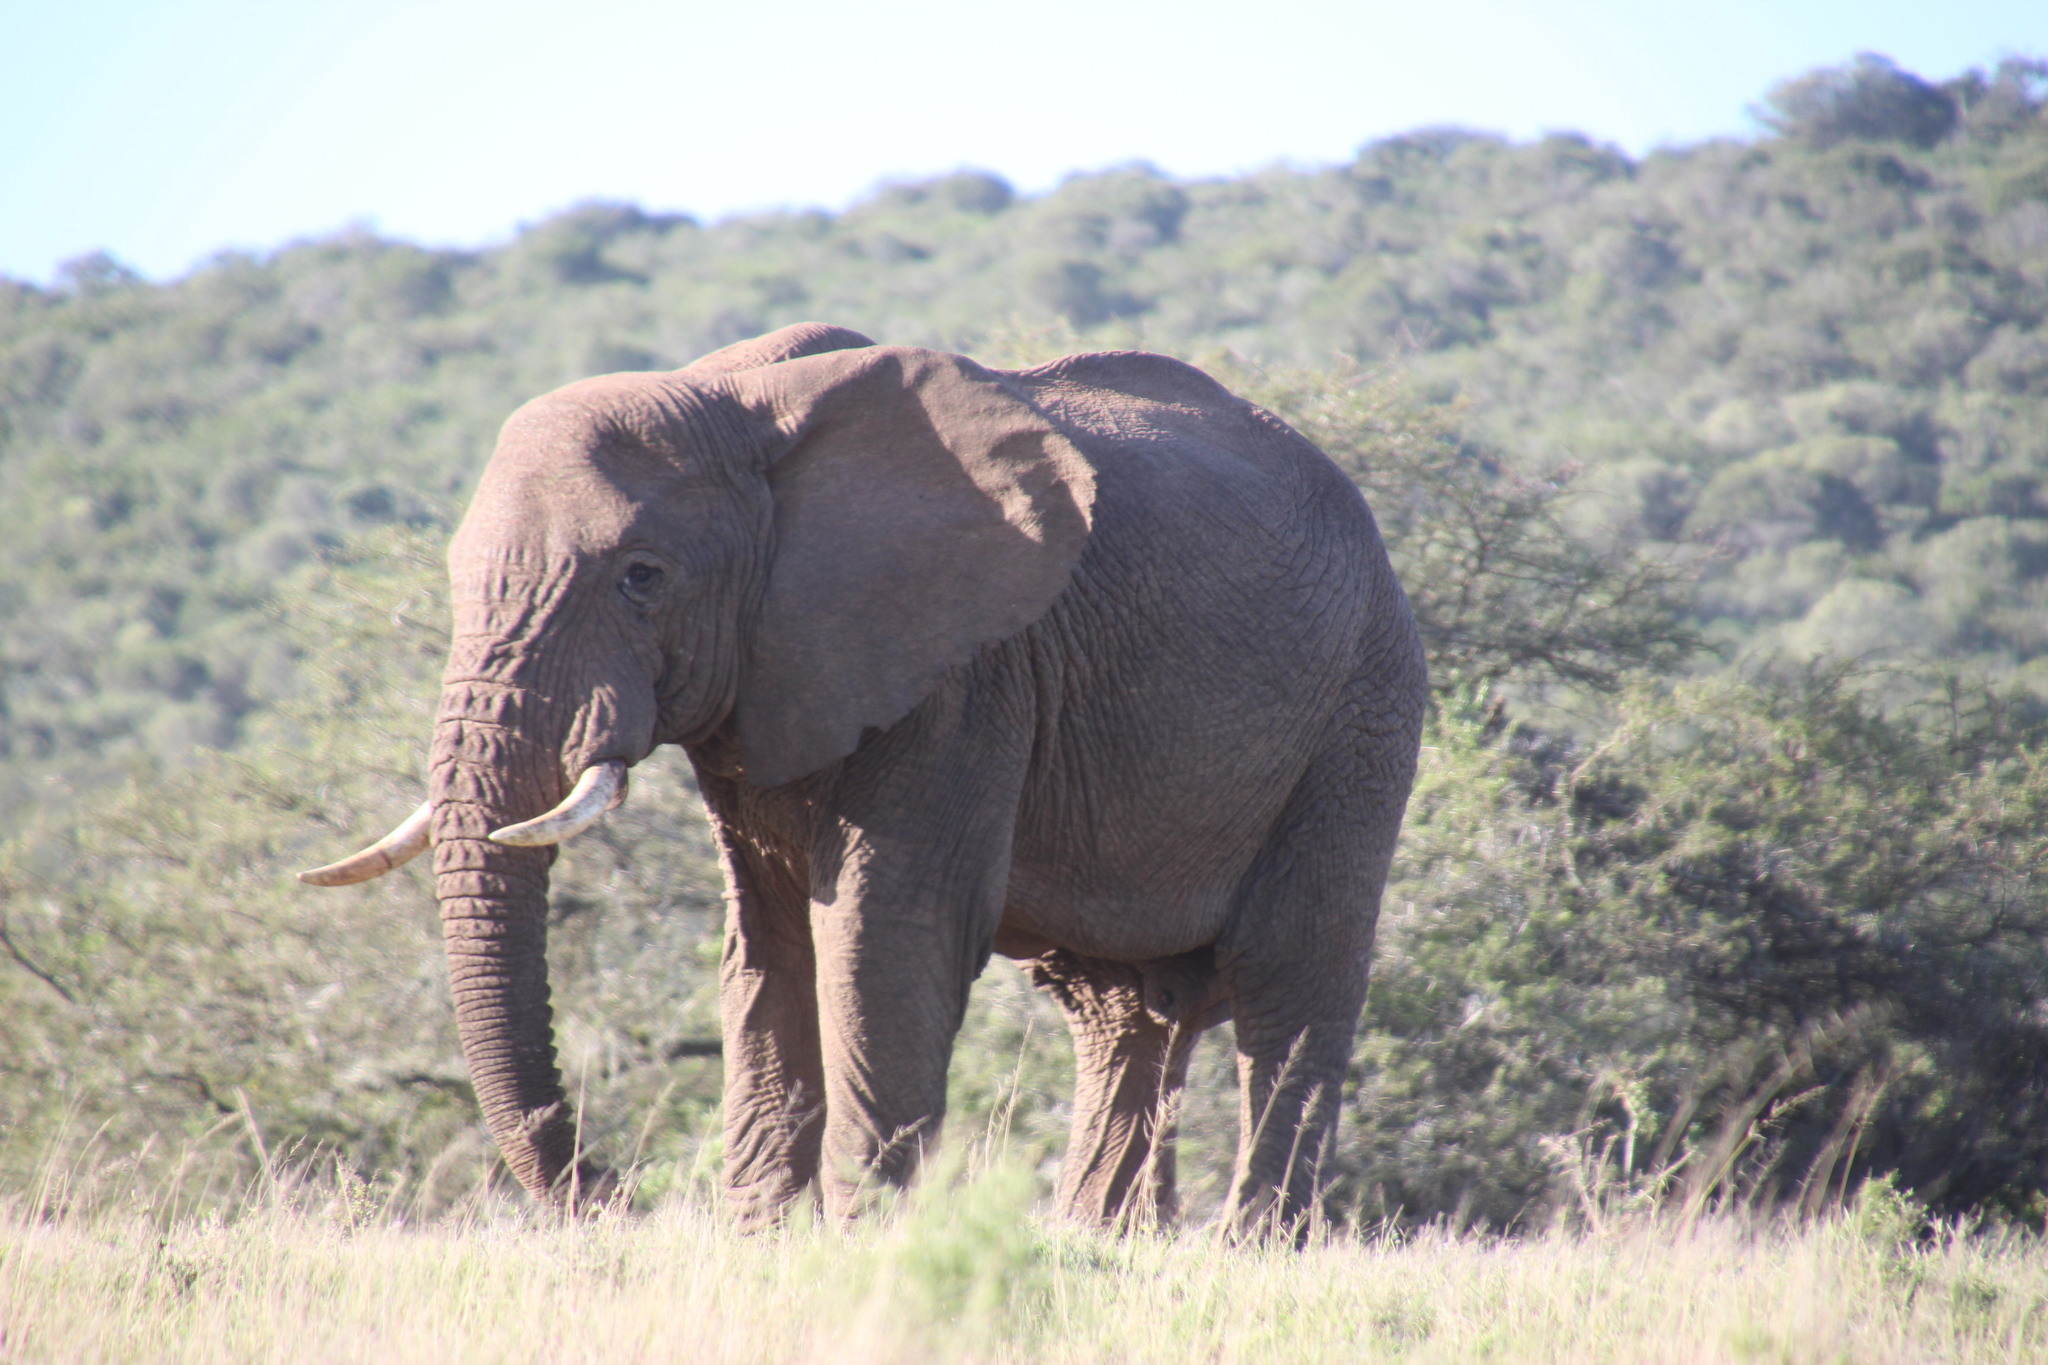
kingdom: Animalia
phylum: Chordata
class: Mammalia
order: Proboscidea
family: Elephantidae
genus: Loxodonta
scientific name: Loxodonta africana
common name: African elephant
